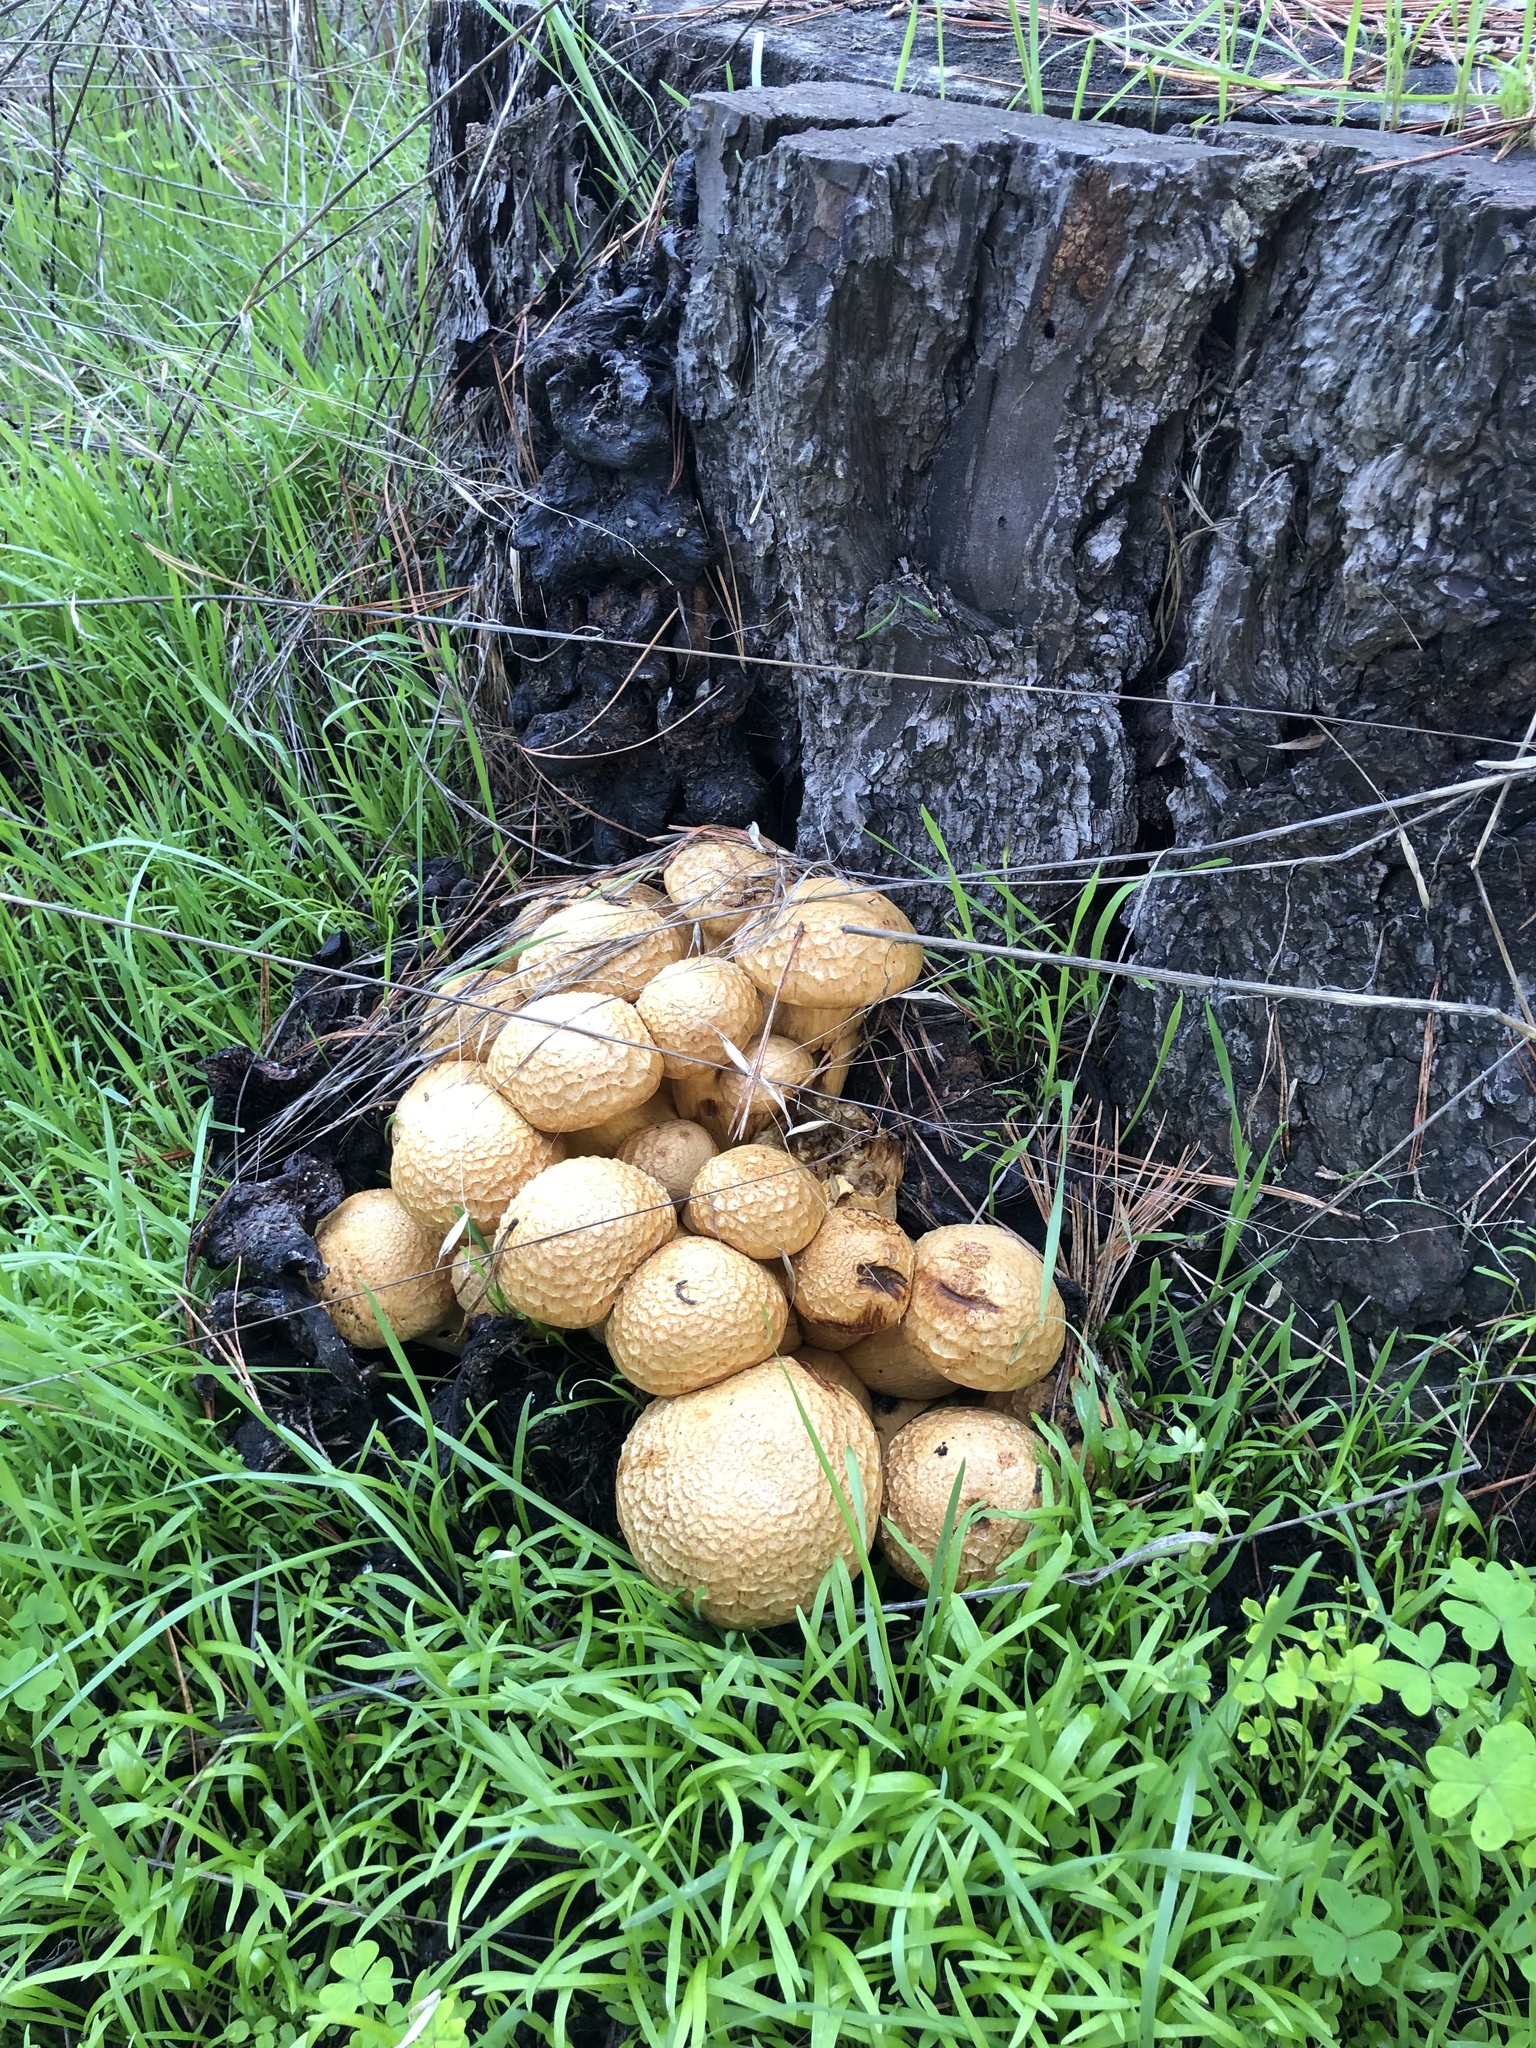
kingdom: Fungi
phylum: Basidiomycota
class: Agaricomycetes
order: Agaricales
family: Hymenogastraceae
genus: Gymnopilus
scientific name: Gymnopilus ventricosus
